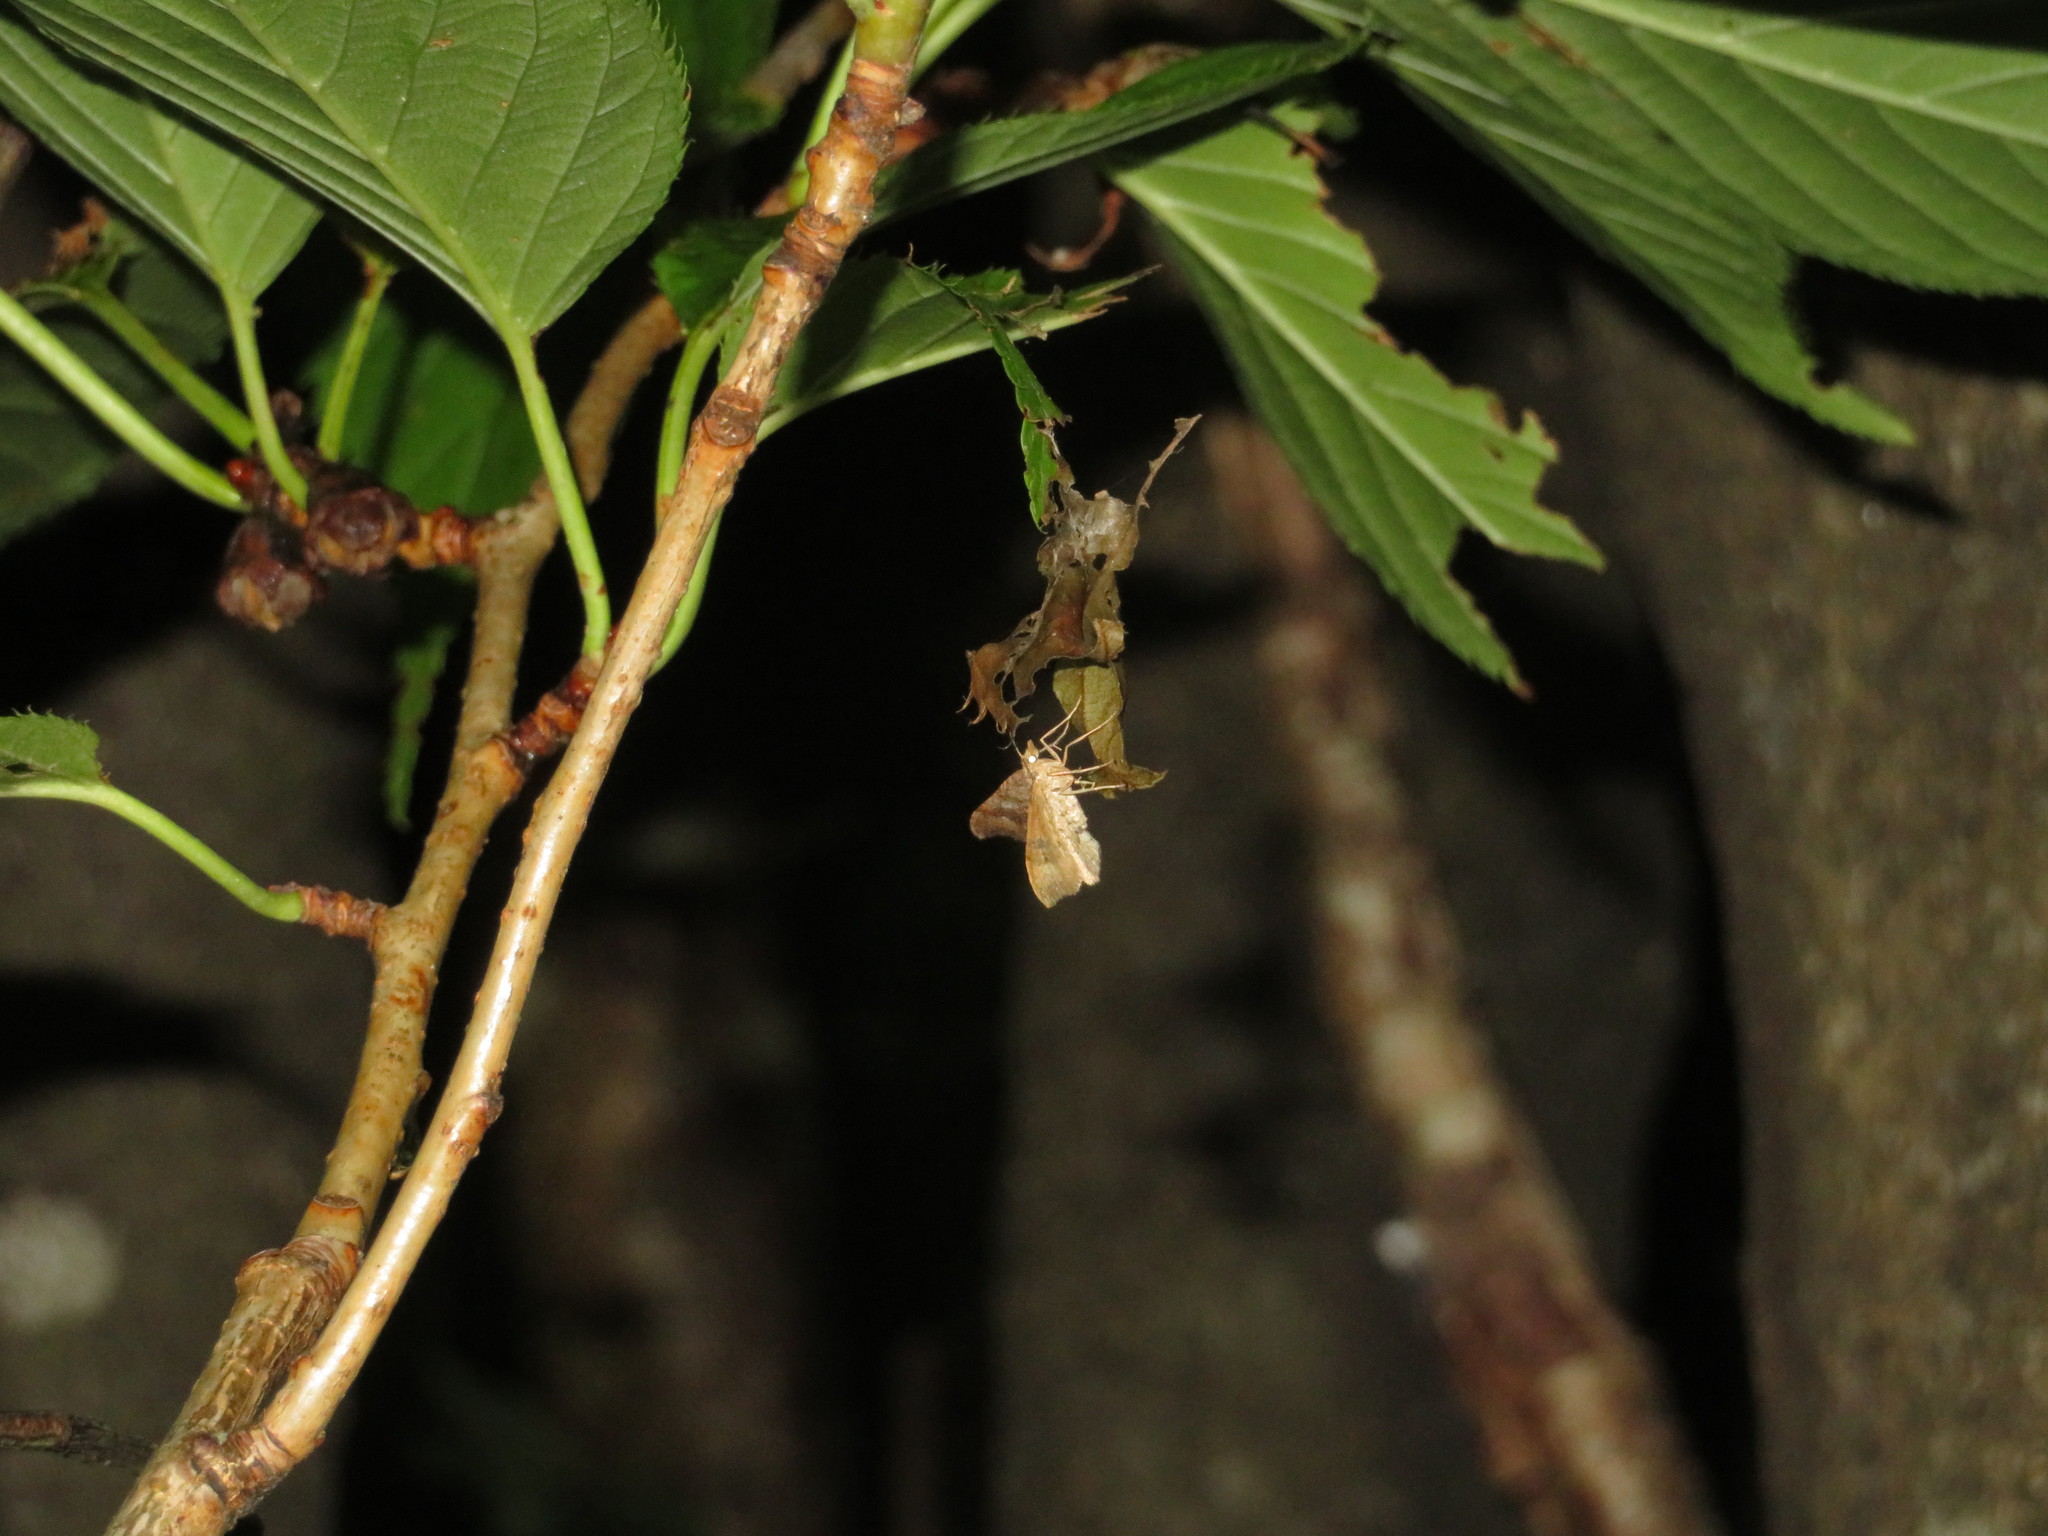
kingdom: Animalia
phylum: Arthropoda
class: Insecta
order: Lepidoptera
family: Geometridae
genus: Homodotis
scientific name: Homodotis megaspilata
